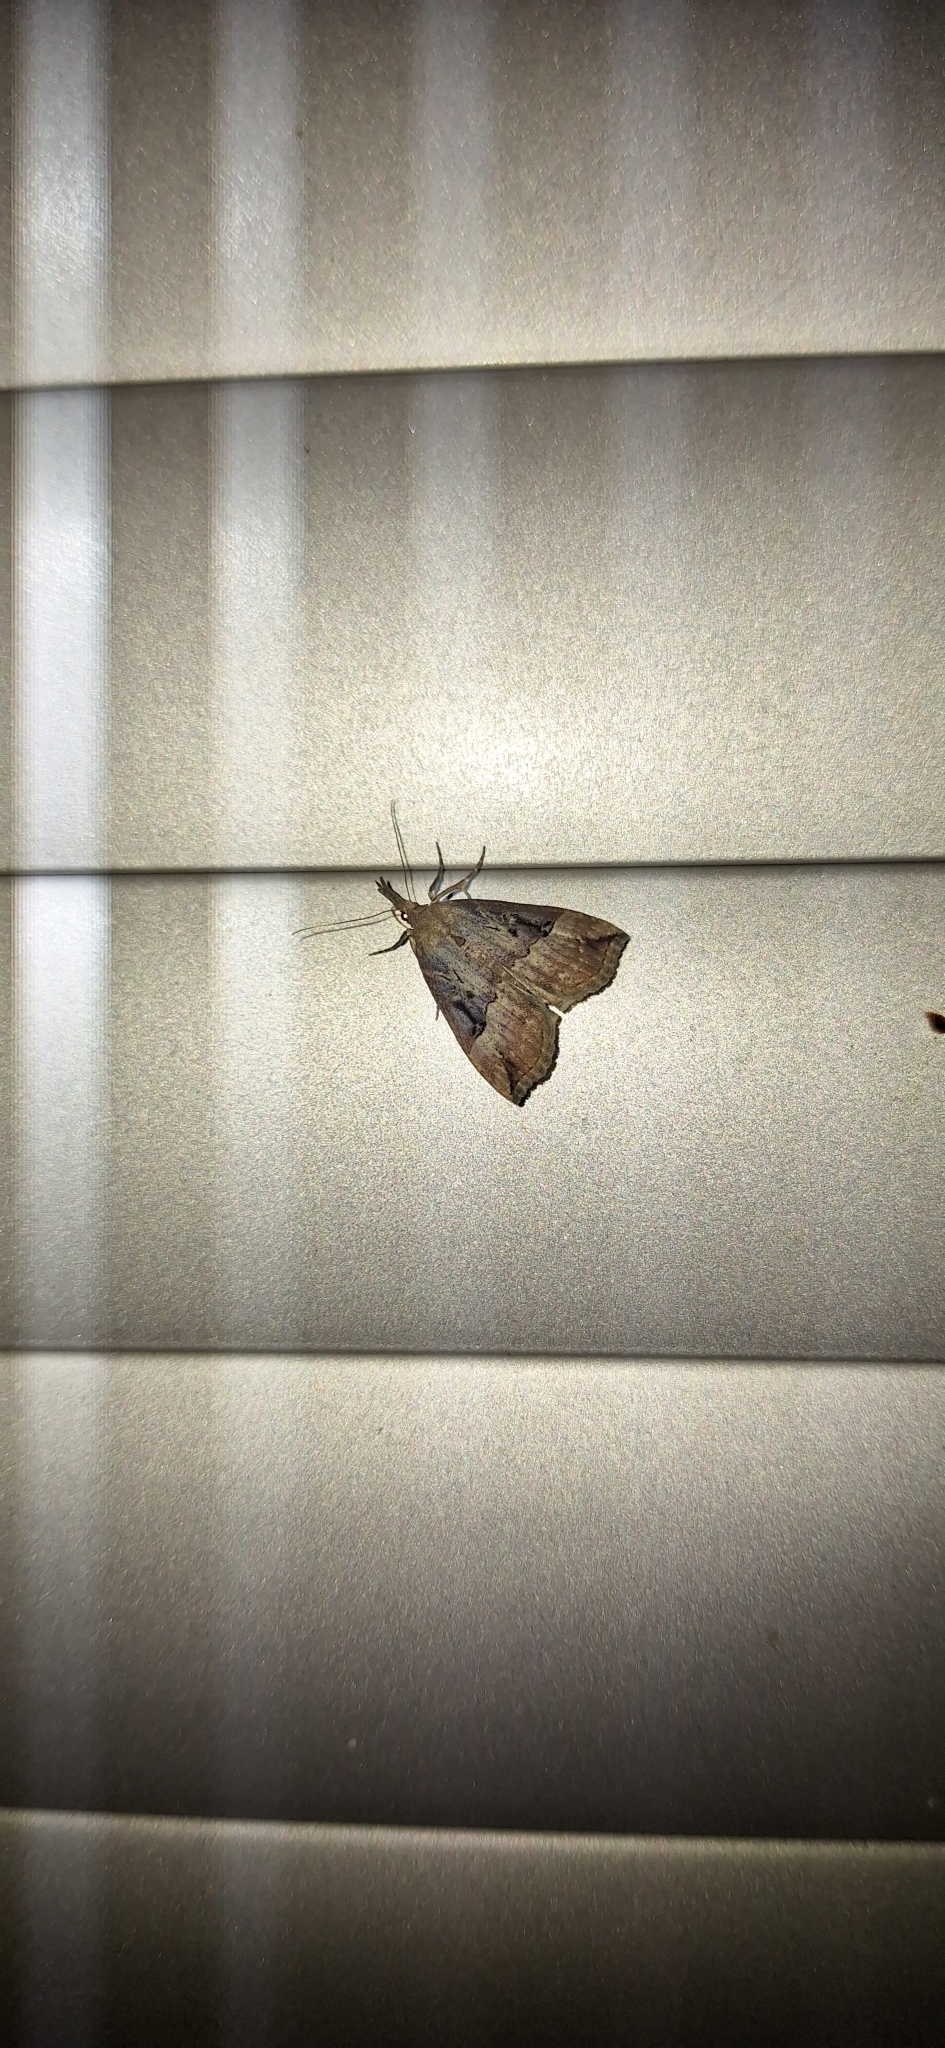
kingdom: Animalia
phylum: Arthropoda
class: Insecta
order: Lepidoptera
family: Erebidae
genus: Hypena
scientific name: Hypena rostralis
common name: Buttoned snout
